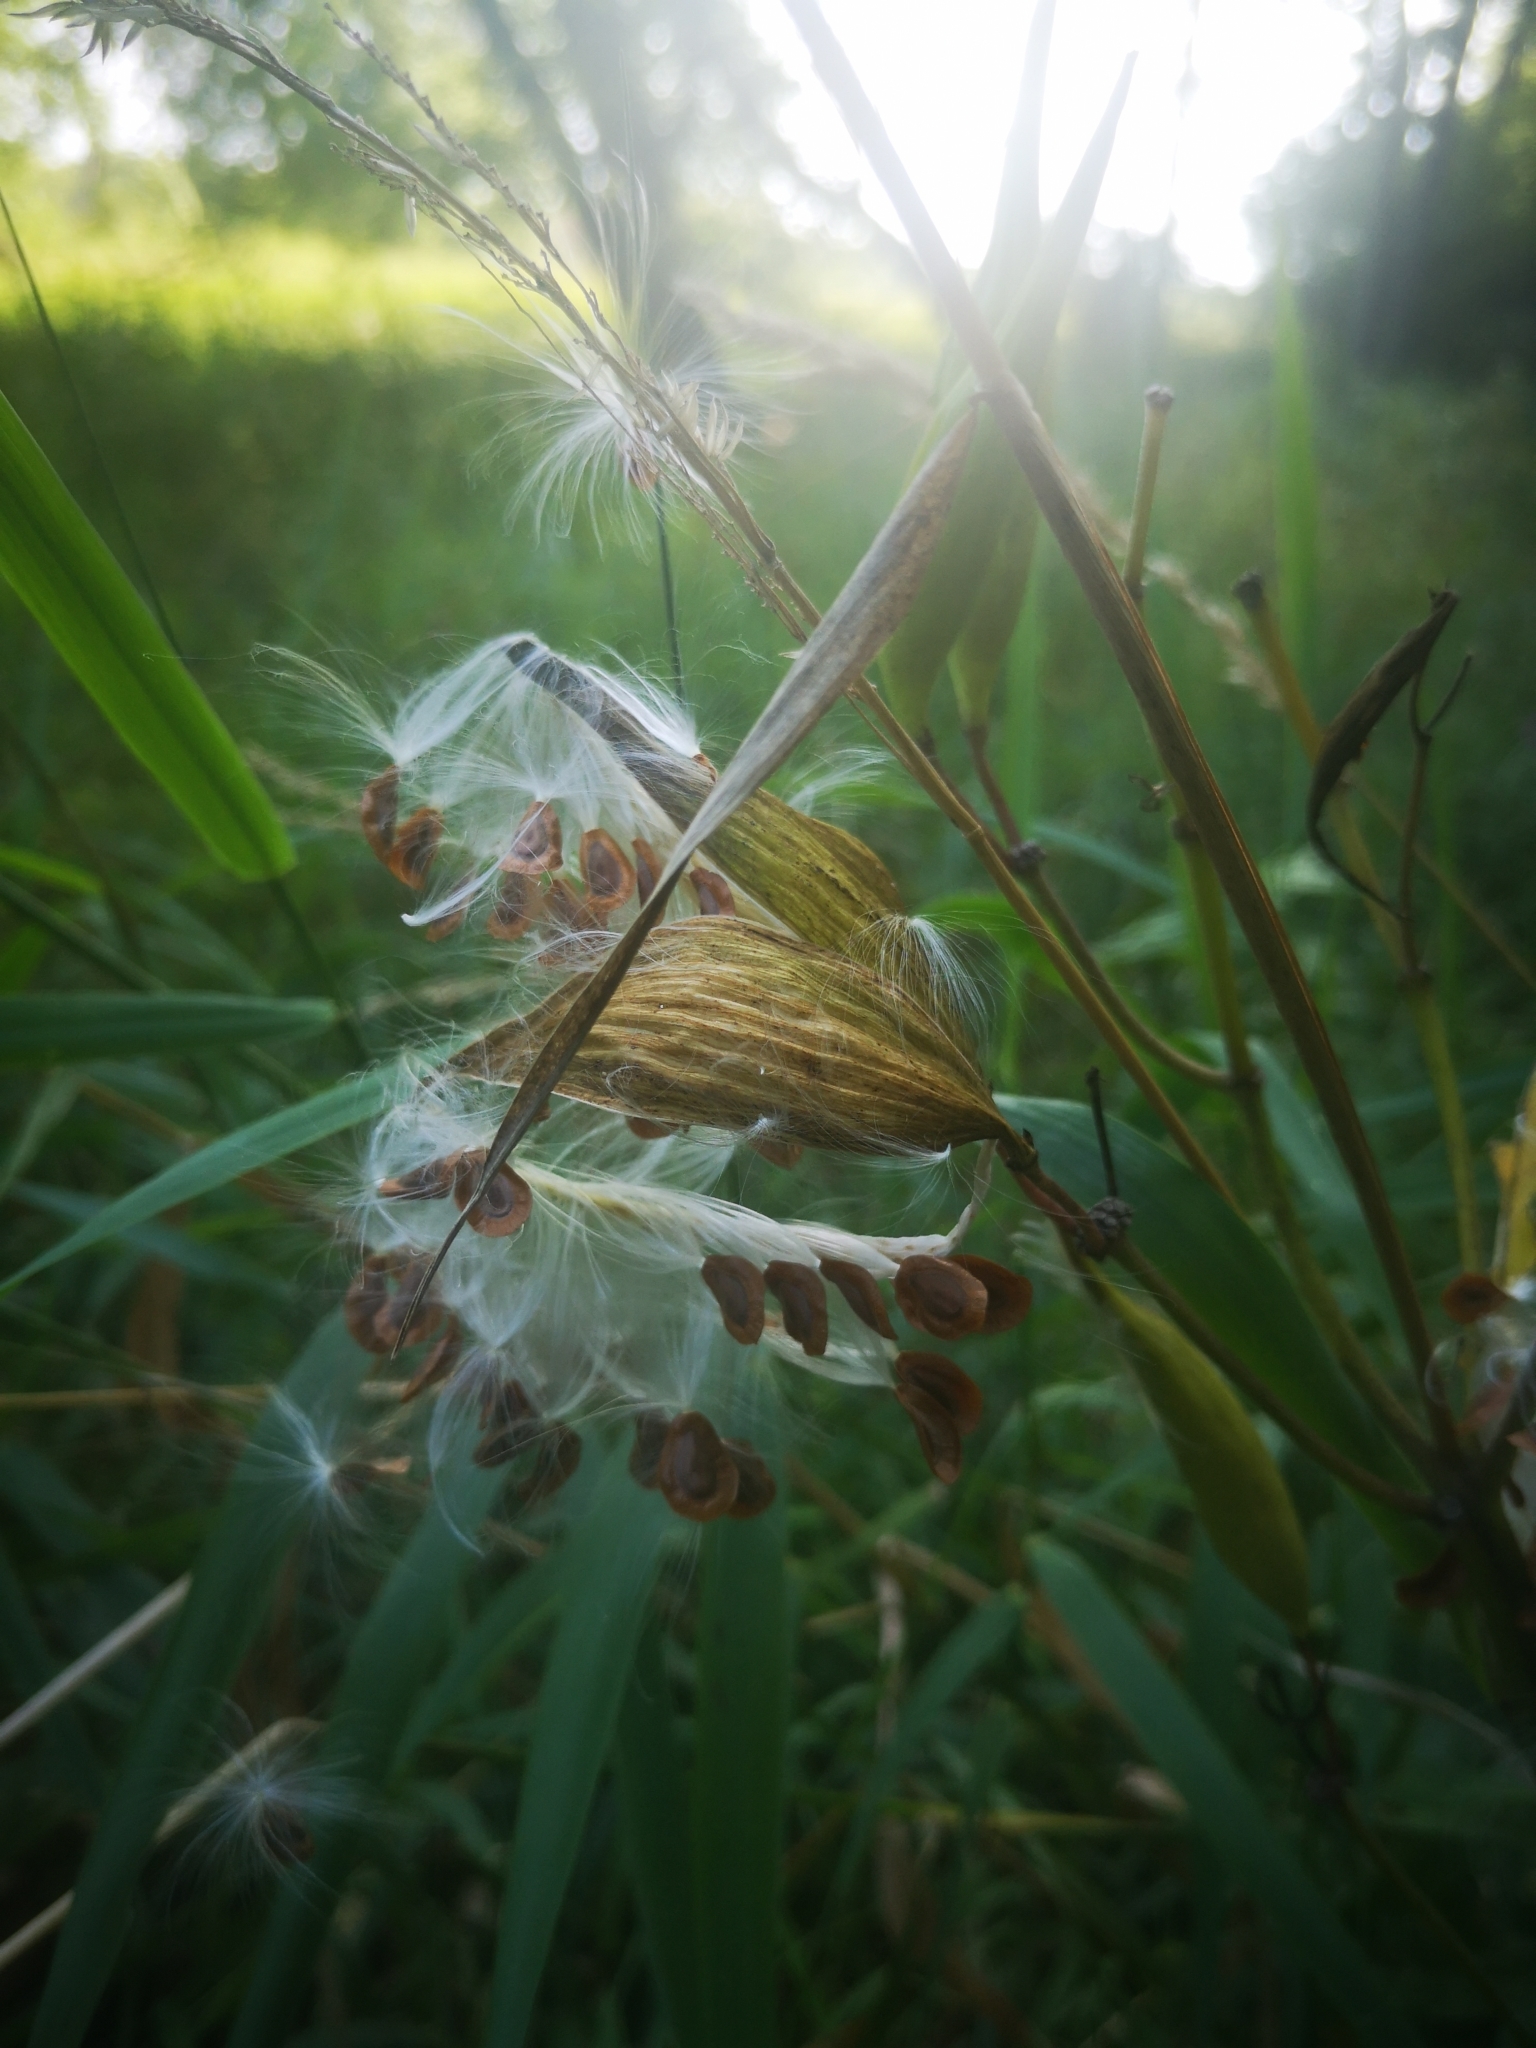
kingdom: Plantae
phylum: Tracheophyta
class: Magnoliopsida
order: Gentianales
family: Apocynaceae
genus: Vincetoxicum
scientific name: Vincetoxicum rossicum
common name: Dog-strangling vine
